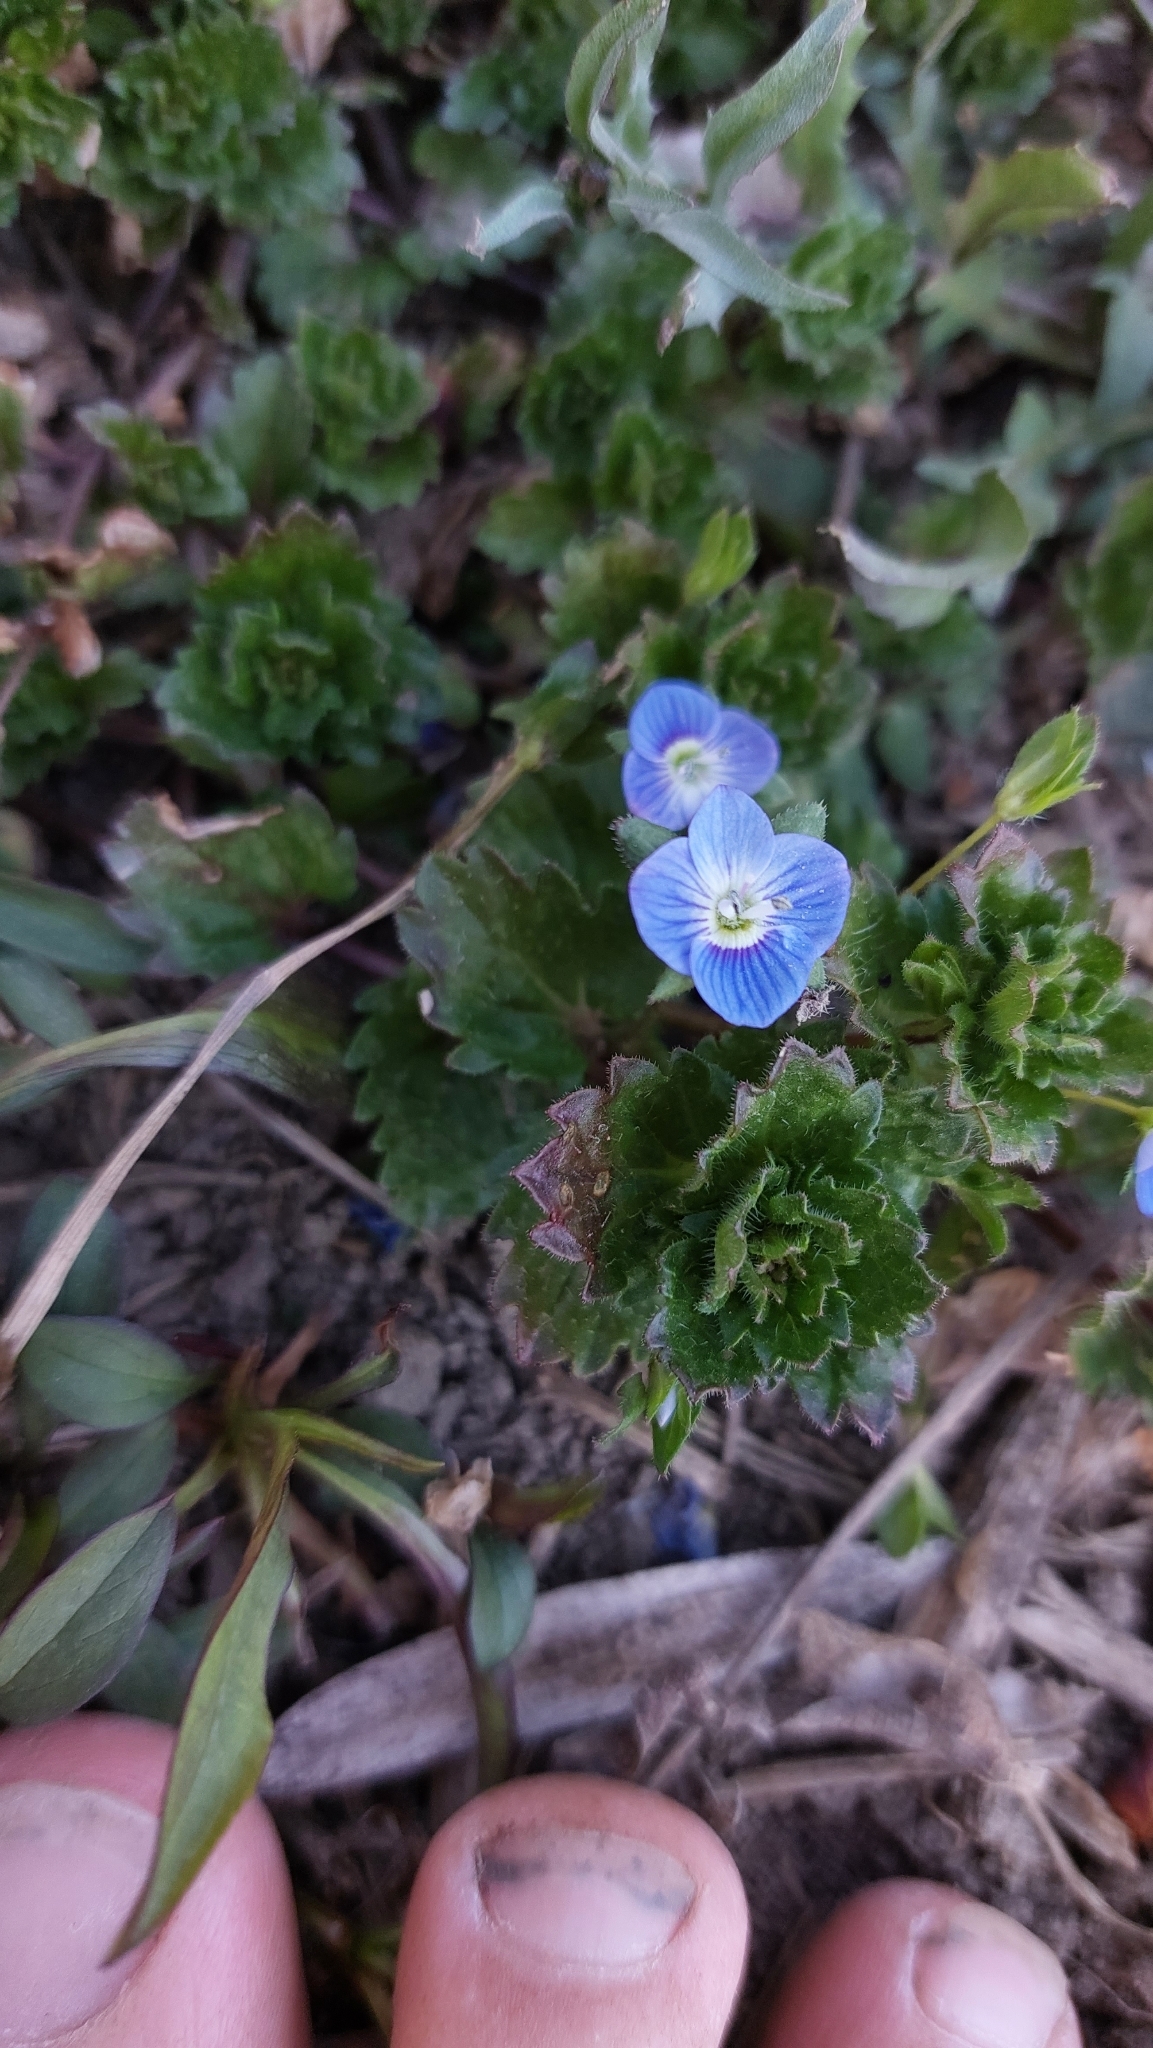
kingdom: Plantae
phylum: Tracheophyta
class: Magnoliopsida
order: Lamiales
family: Plantaginaceae
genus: Veronica
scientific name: Veronica persica
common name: Common field-speedwell
